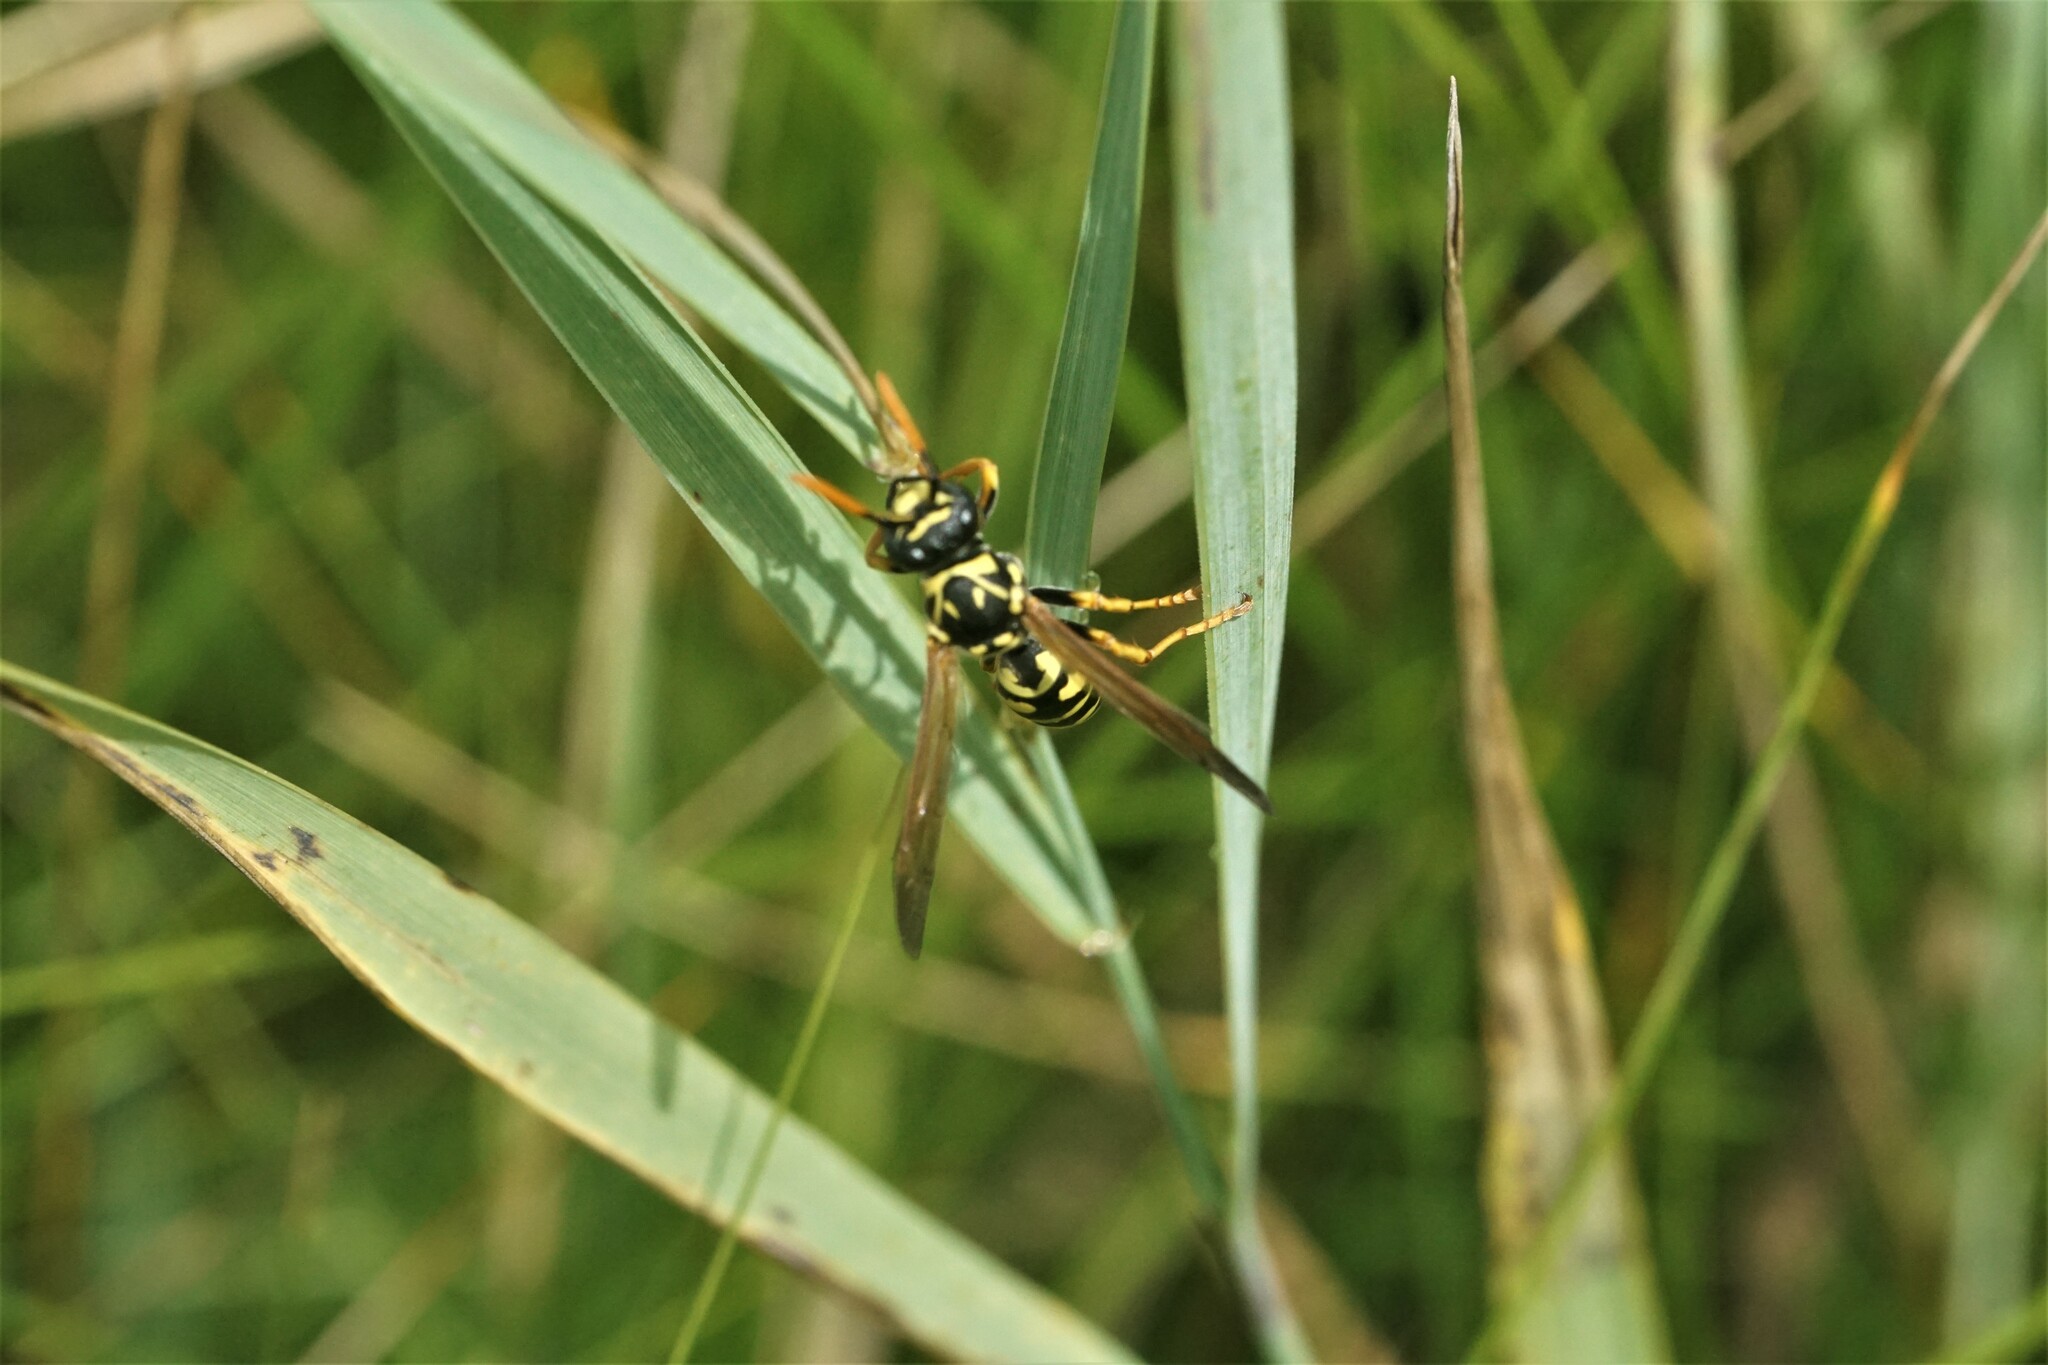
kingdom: Animalia
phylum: Arthropoda
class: Insecta
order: Hymenoptera
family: Eumenidae
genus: Polistes
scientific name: Polistes dominula
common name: Paper wasp
